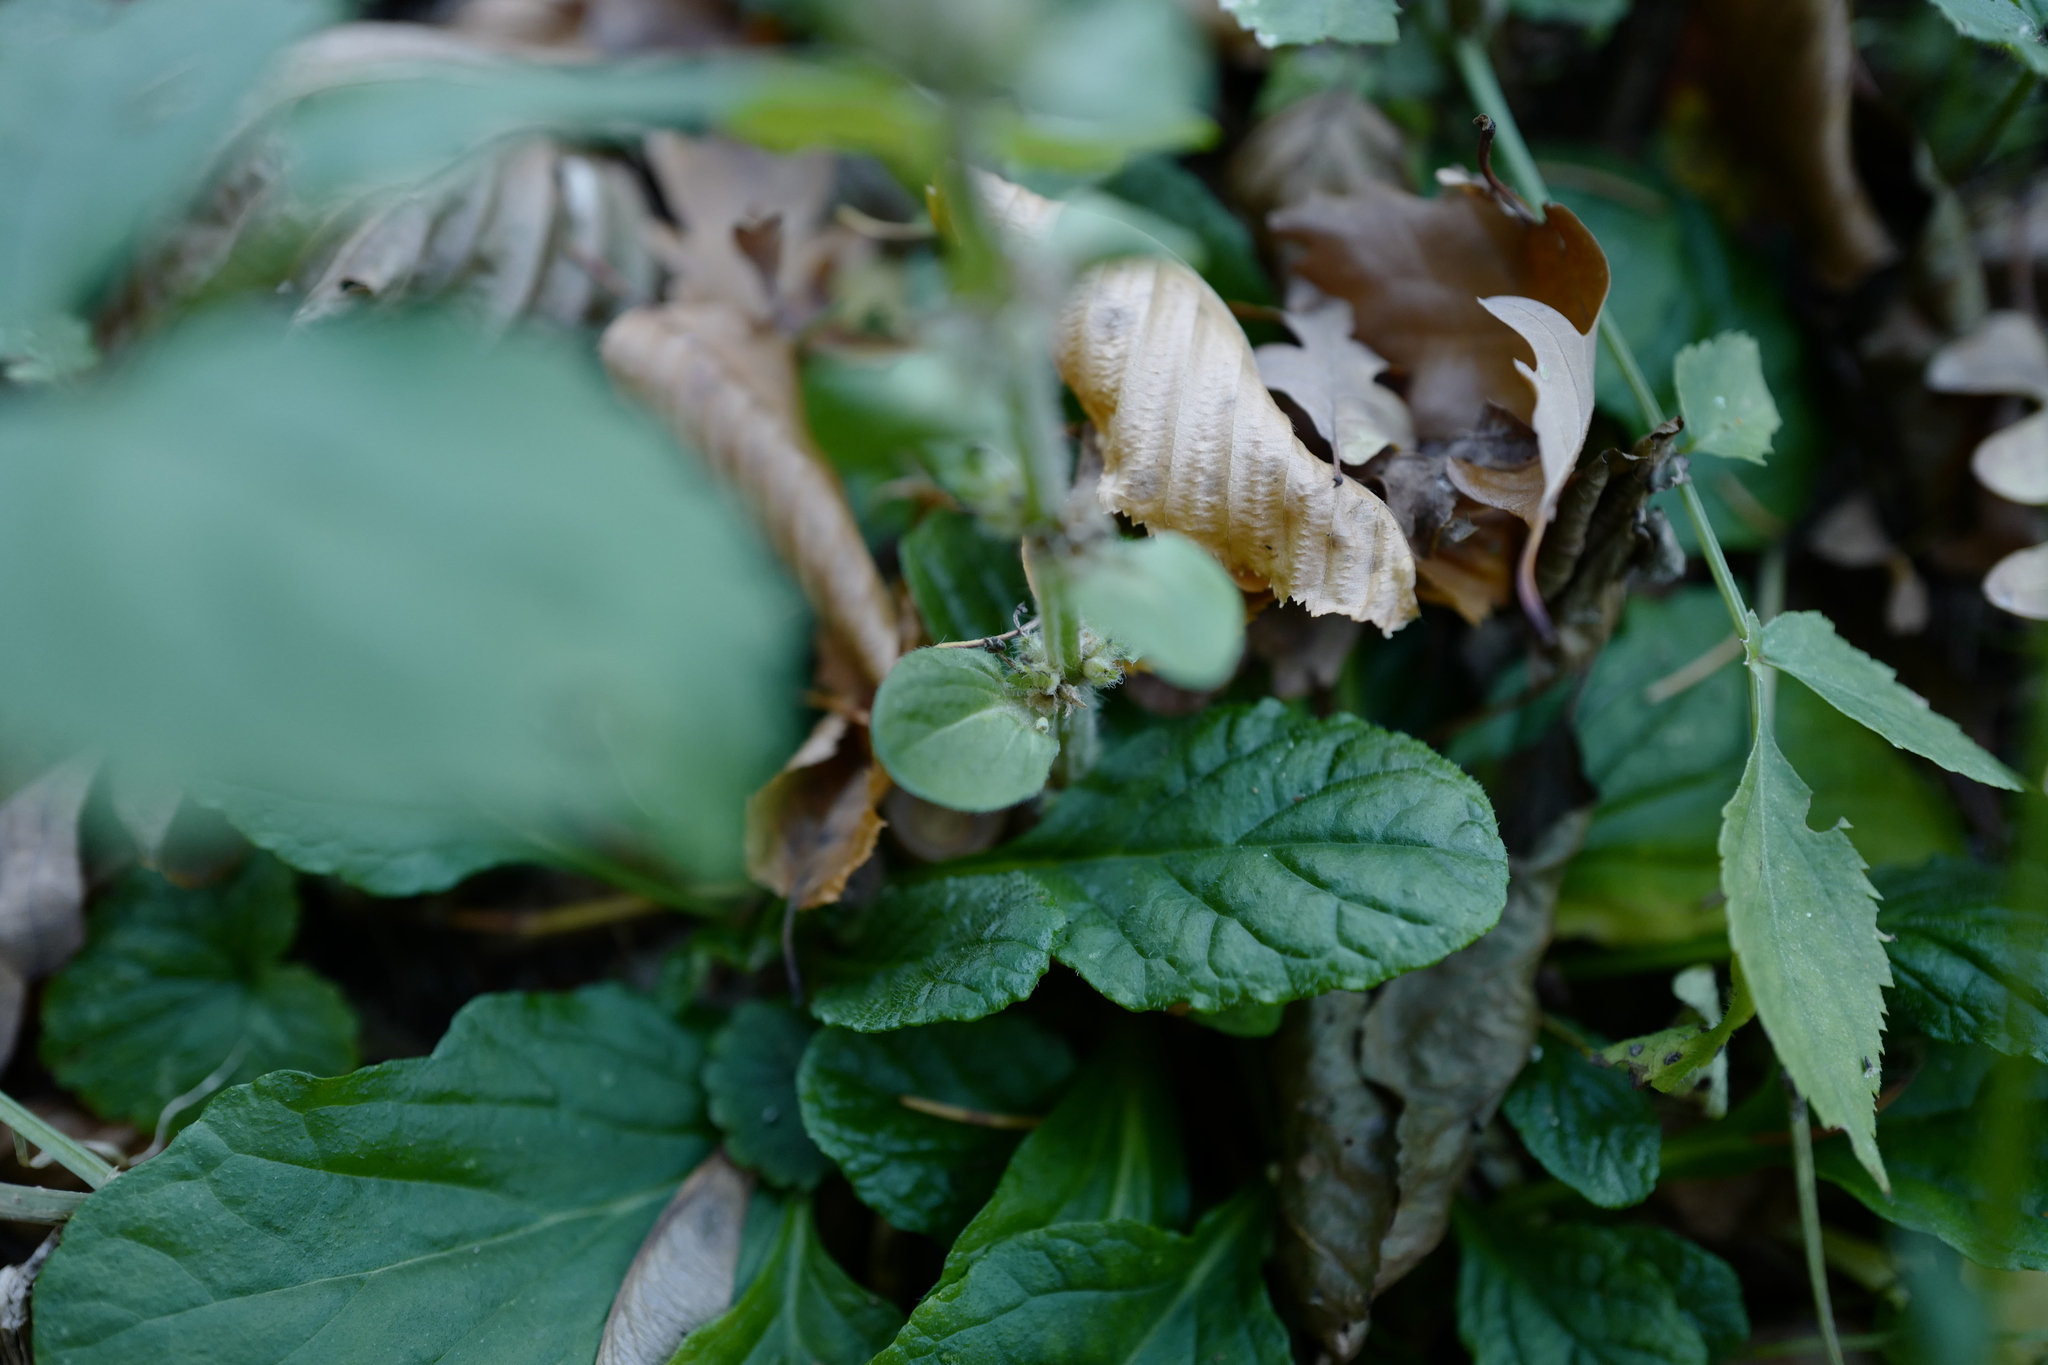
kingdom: Plantae
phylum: Tracheophyta
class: Magnoliopsida
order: Lamiales
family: Lamiaceae
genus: Ajuga
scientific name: Ajuga reptans
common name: Bugle
